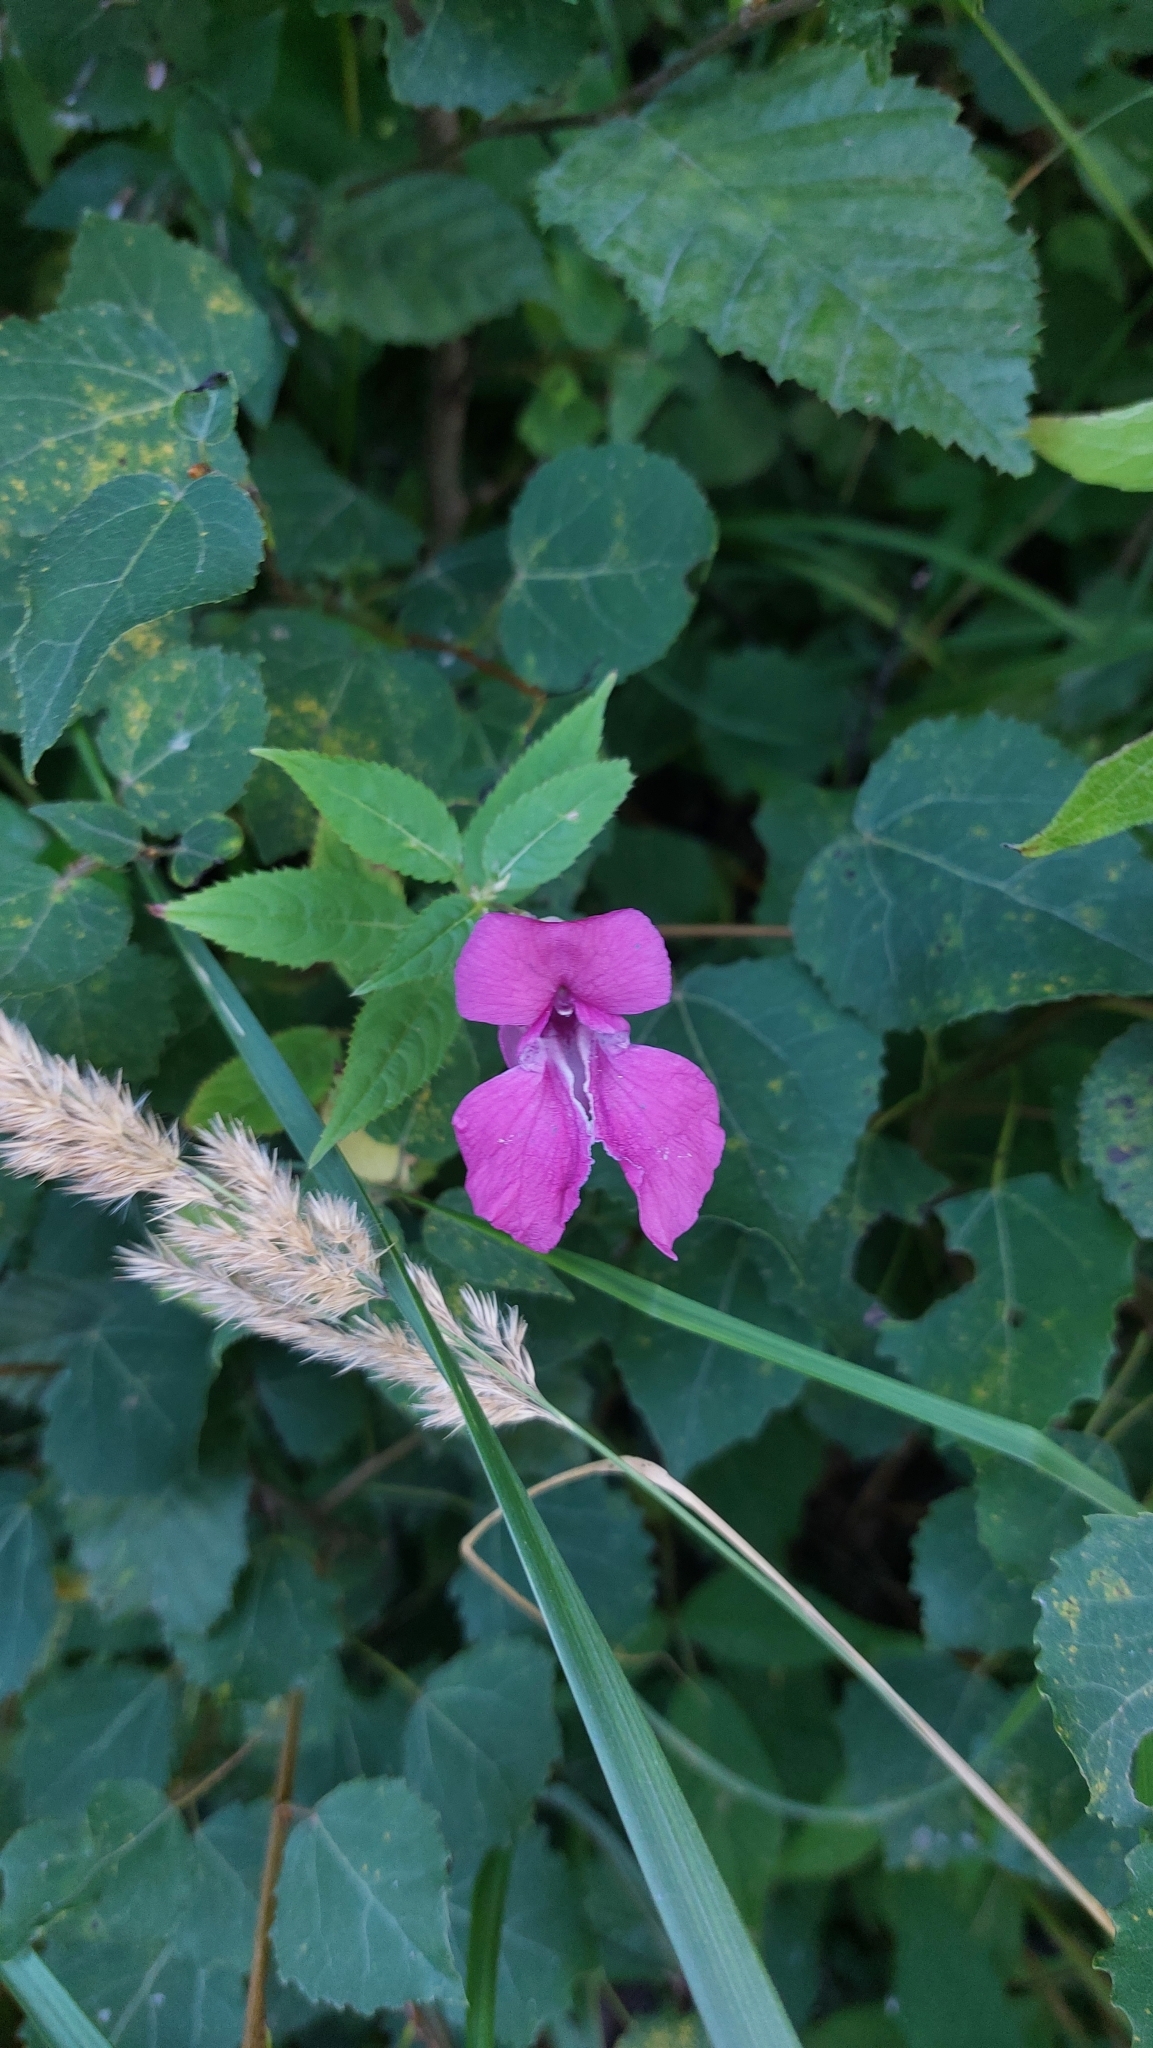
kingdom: Plantae
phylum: Tracheophyta
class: Magnoliopsida
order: Ericales
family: Balsaminaceae
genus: Impatiens
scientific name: Impatiens glandulifera
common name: Himalayan balsam
